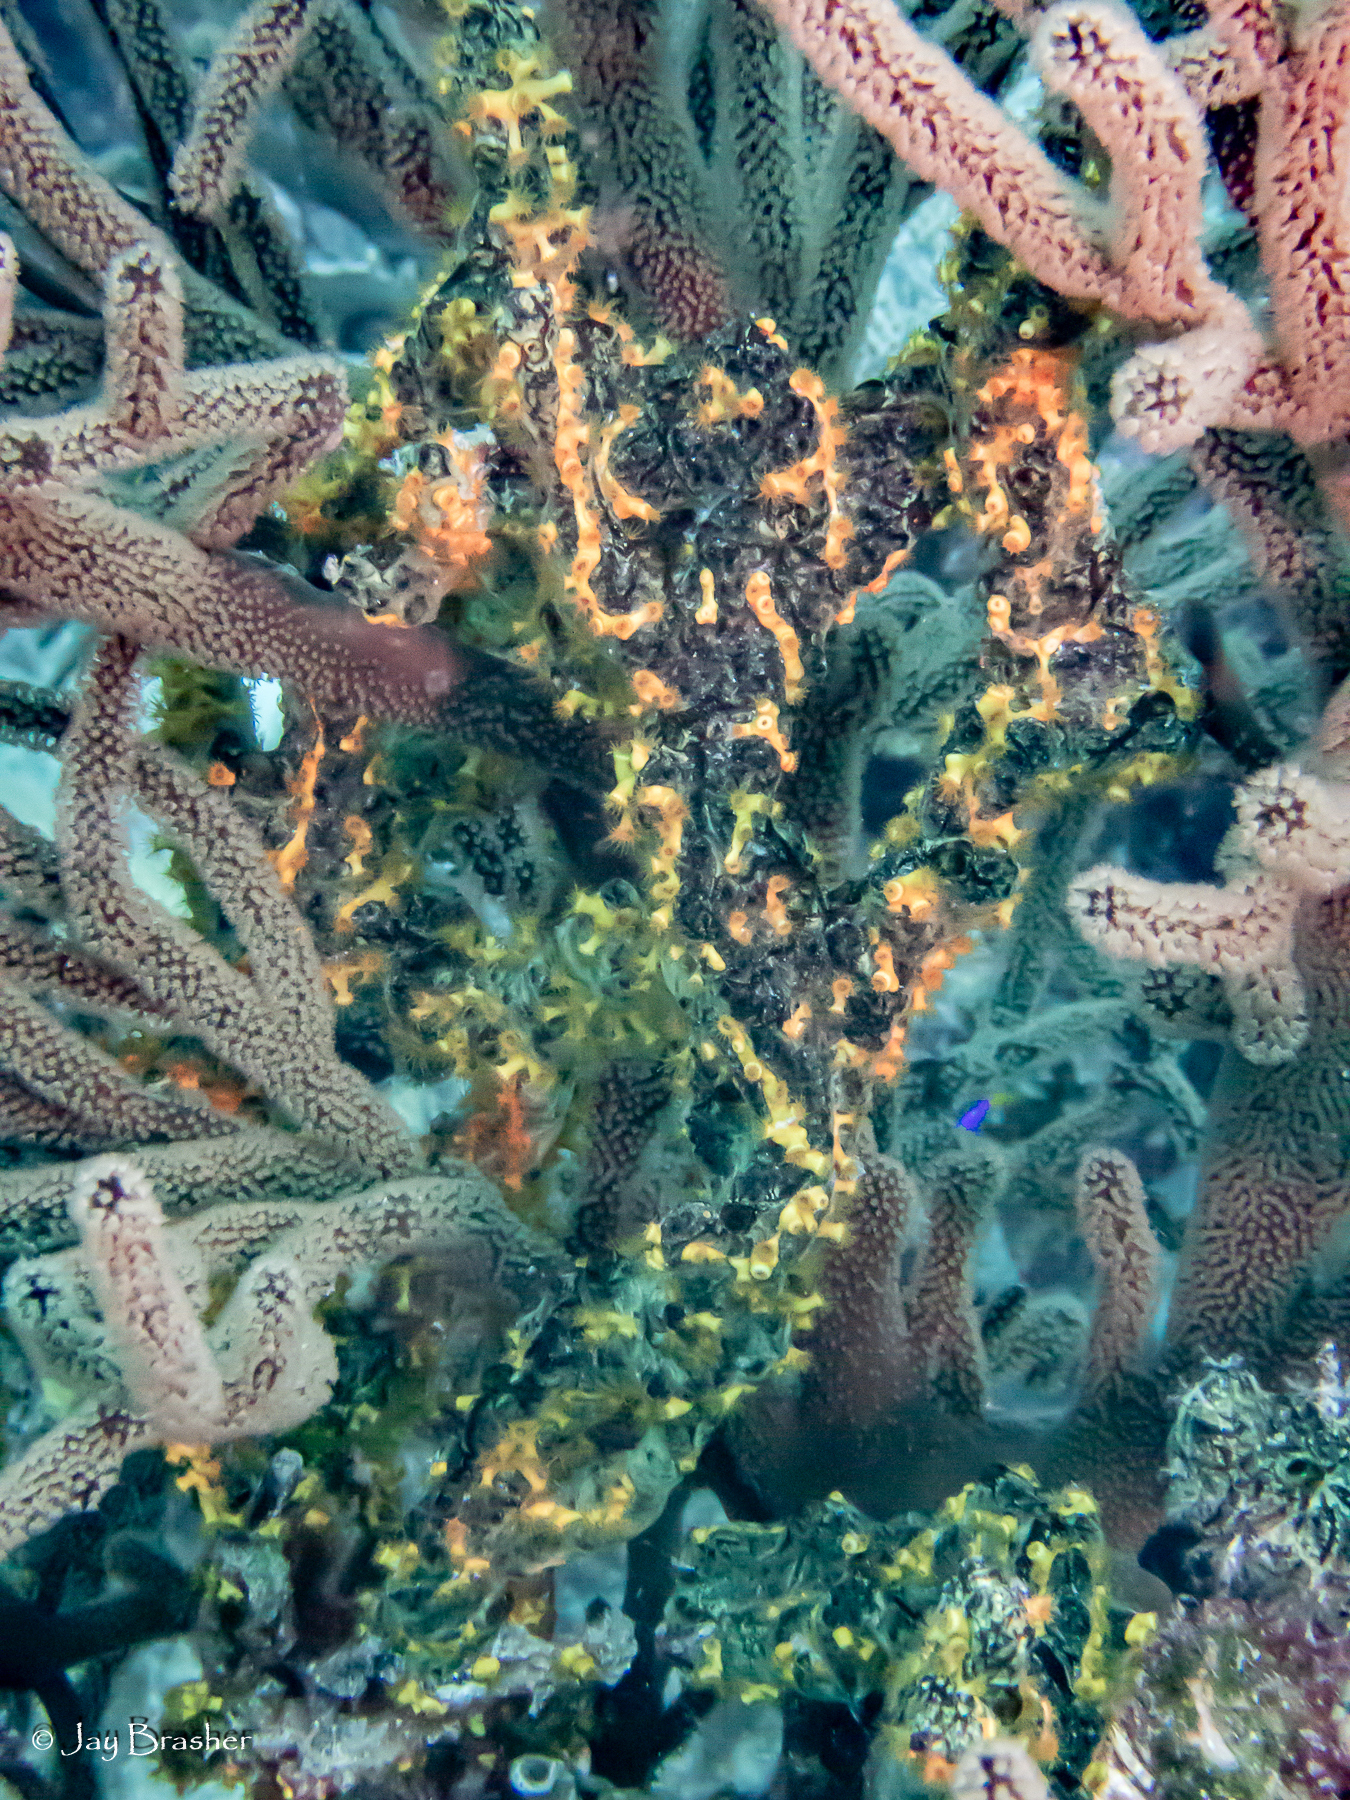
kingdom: Animalia
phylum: Cnidaria
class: Anthozoa
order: Zoantharia
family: Parazoanthidae
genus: Parazoanthus
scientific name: Parazoanthus swiftii
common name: Golden zoanthid
